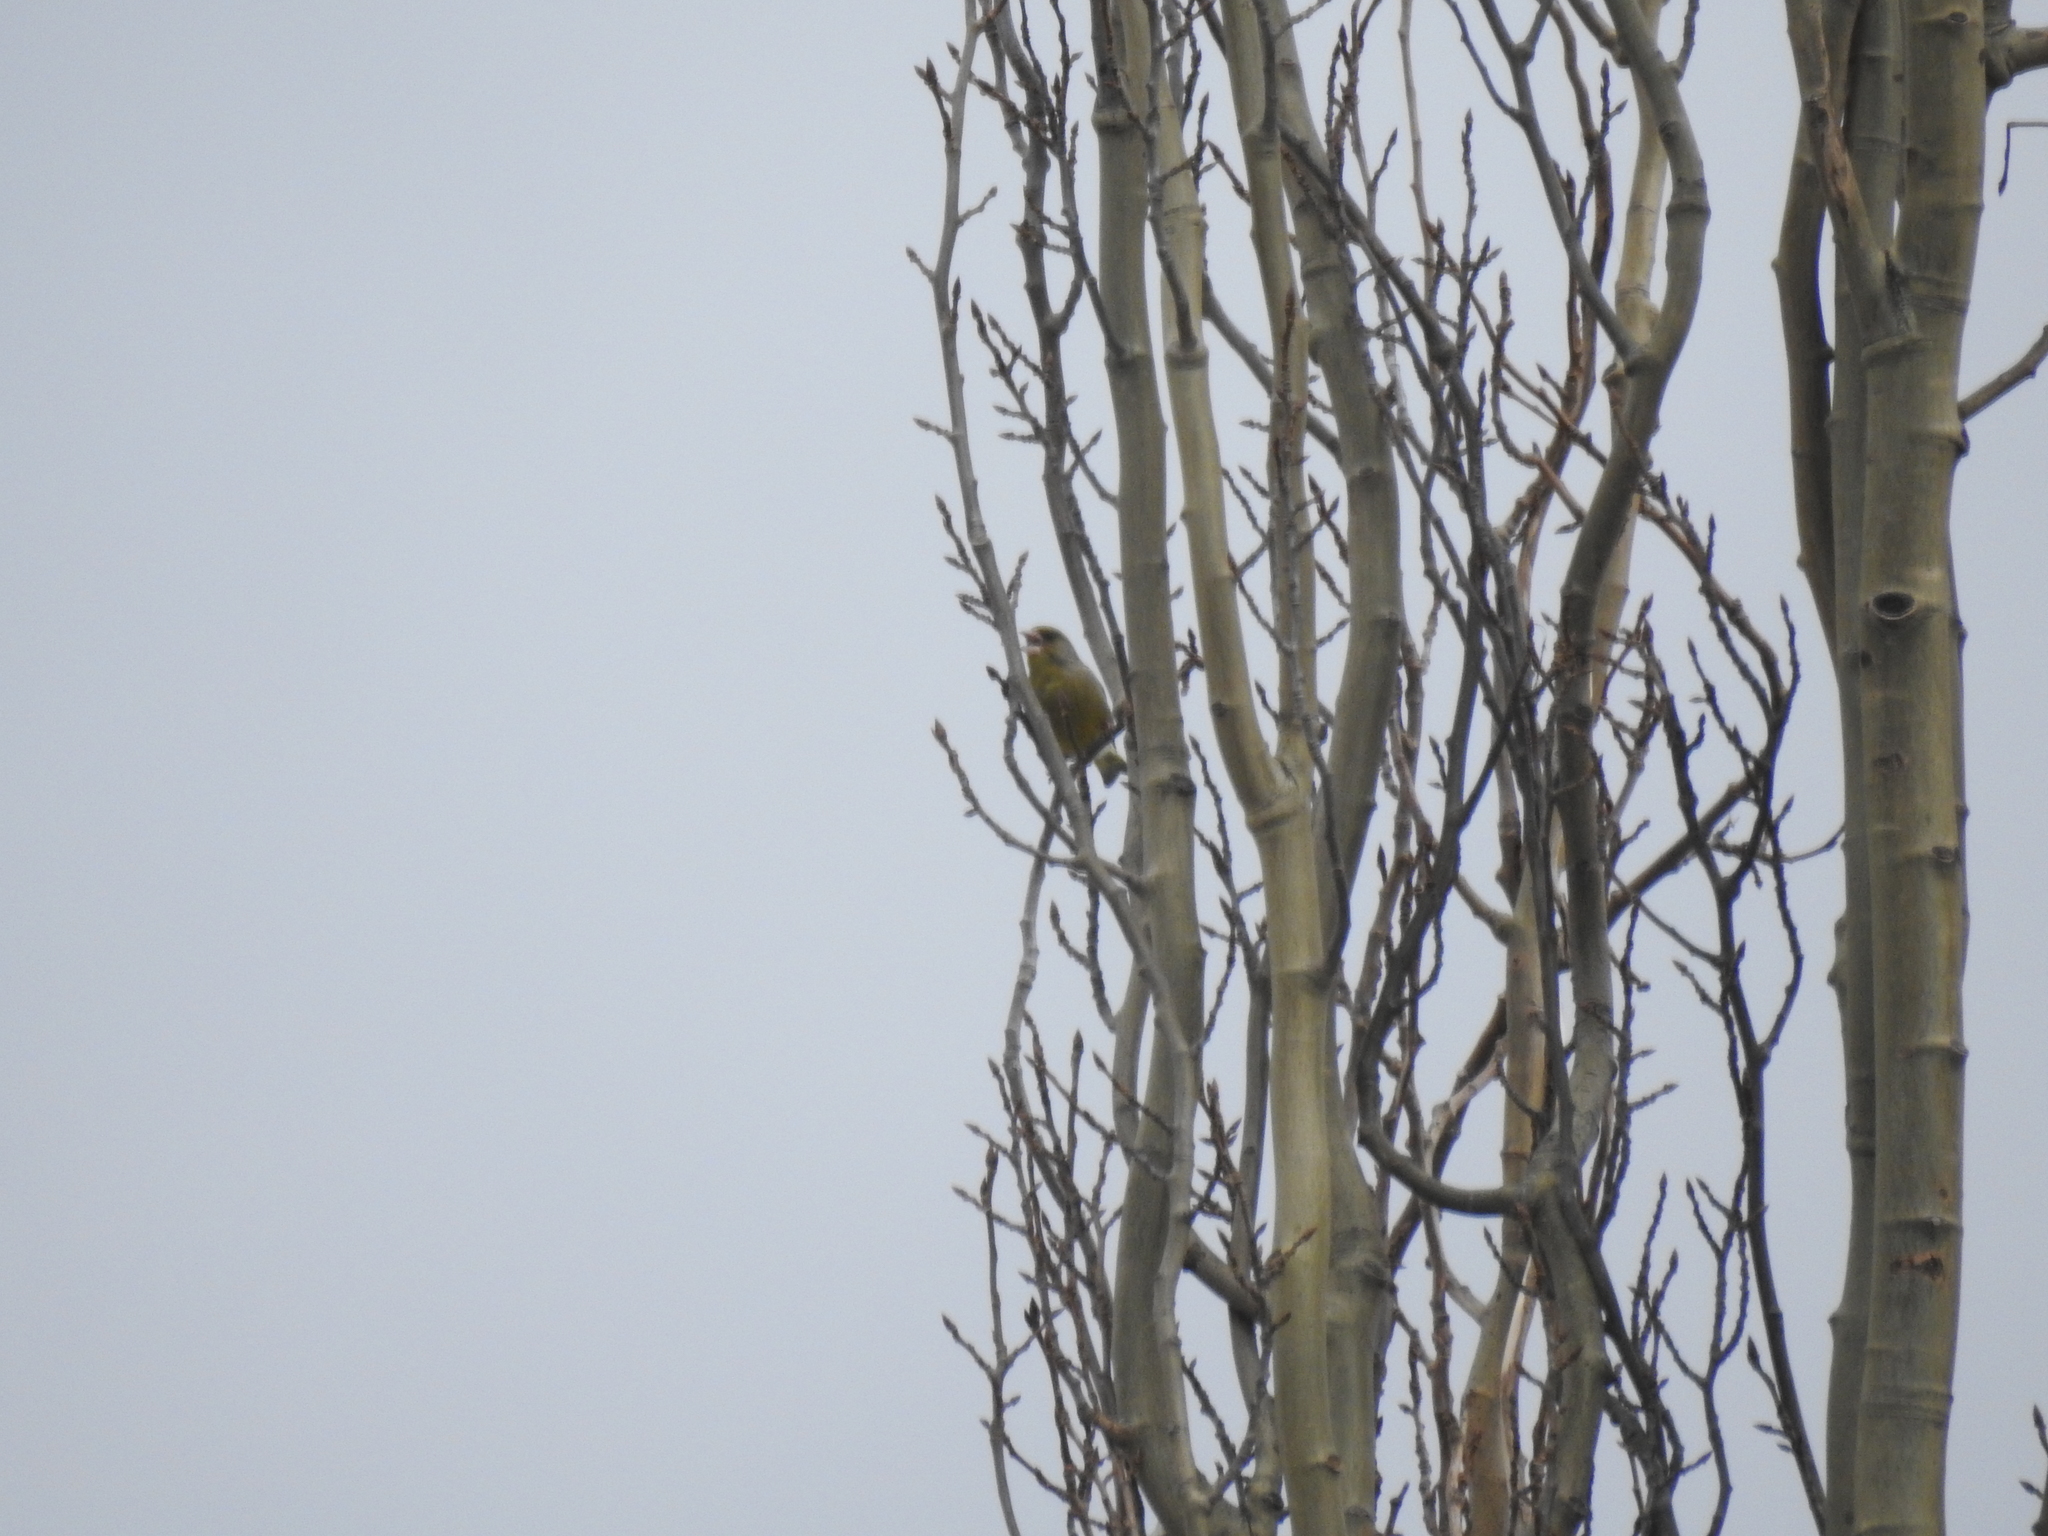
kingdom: Plantae
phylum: Tracheophyta
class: Liliopsida
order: Poales
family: Poaceae
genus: Chloris
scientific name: Chloris chloris
